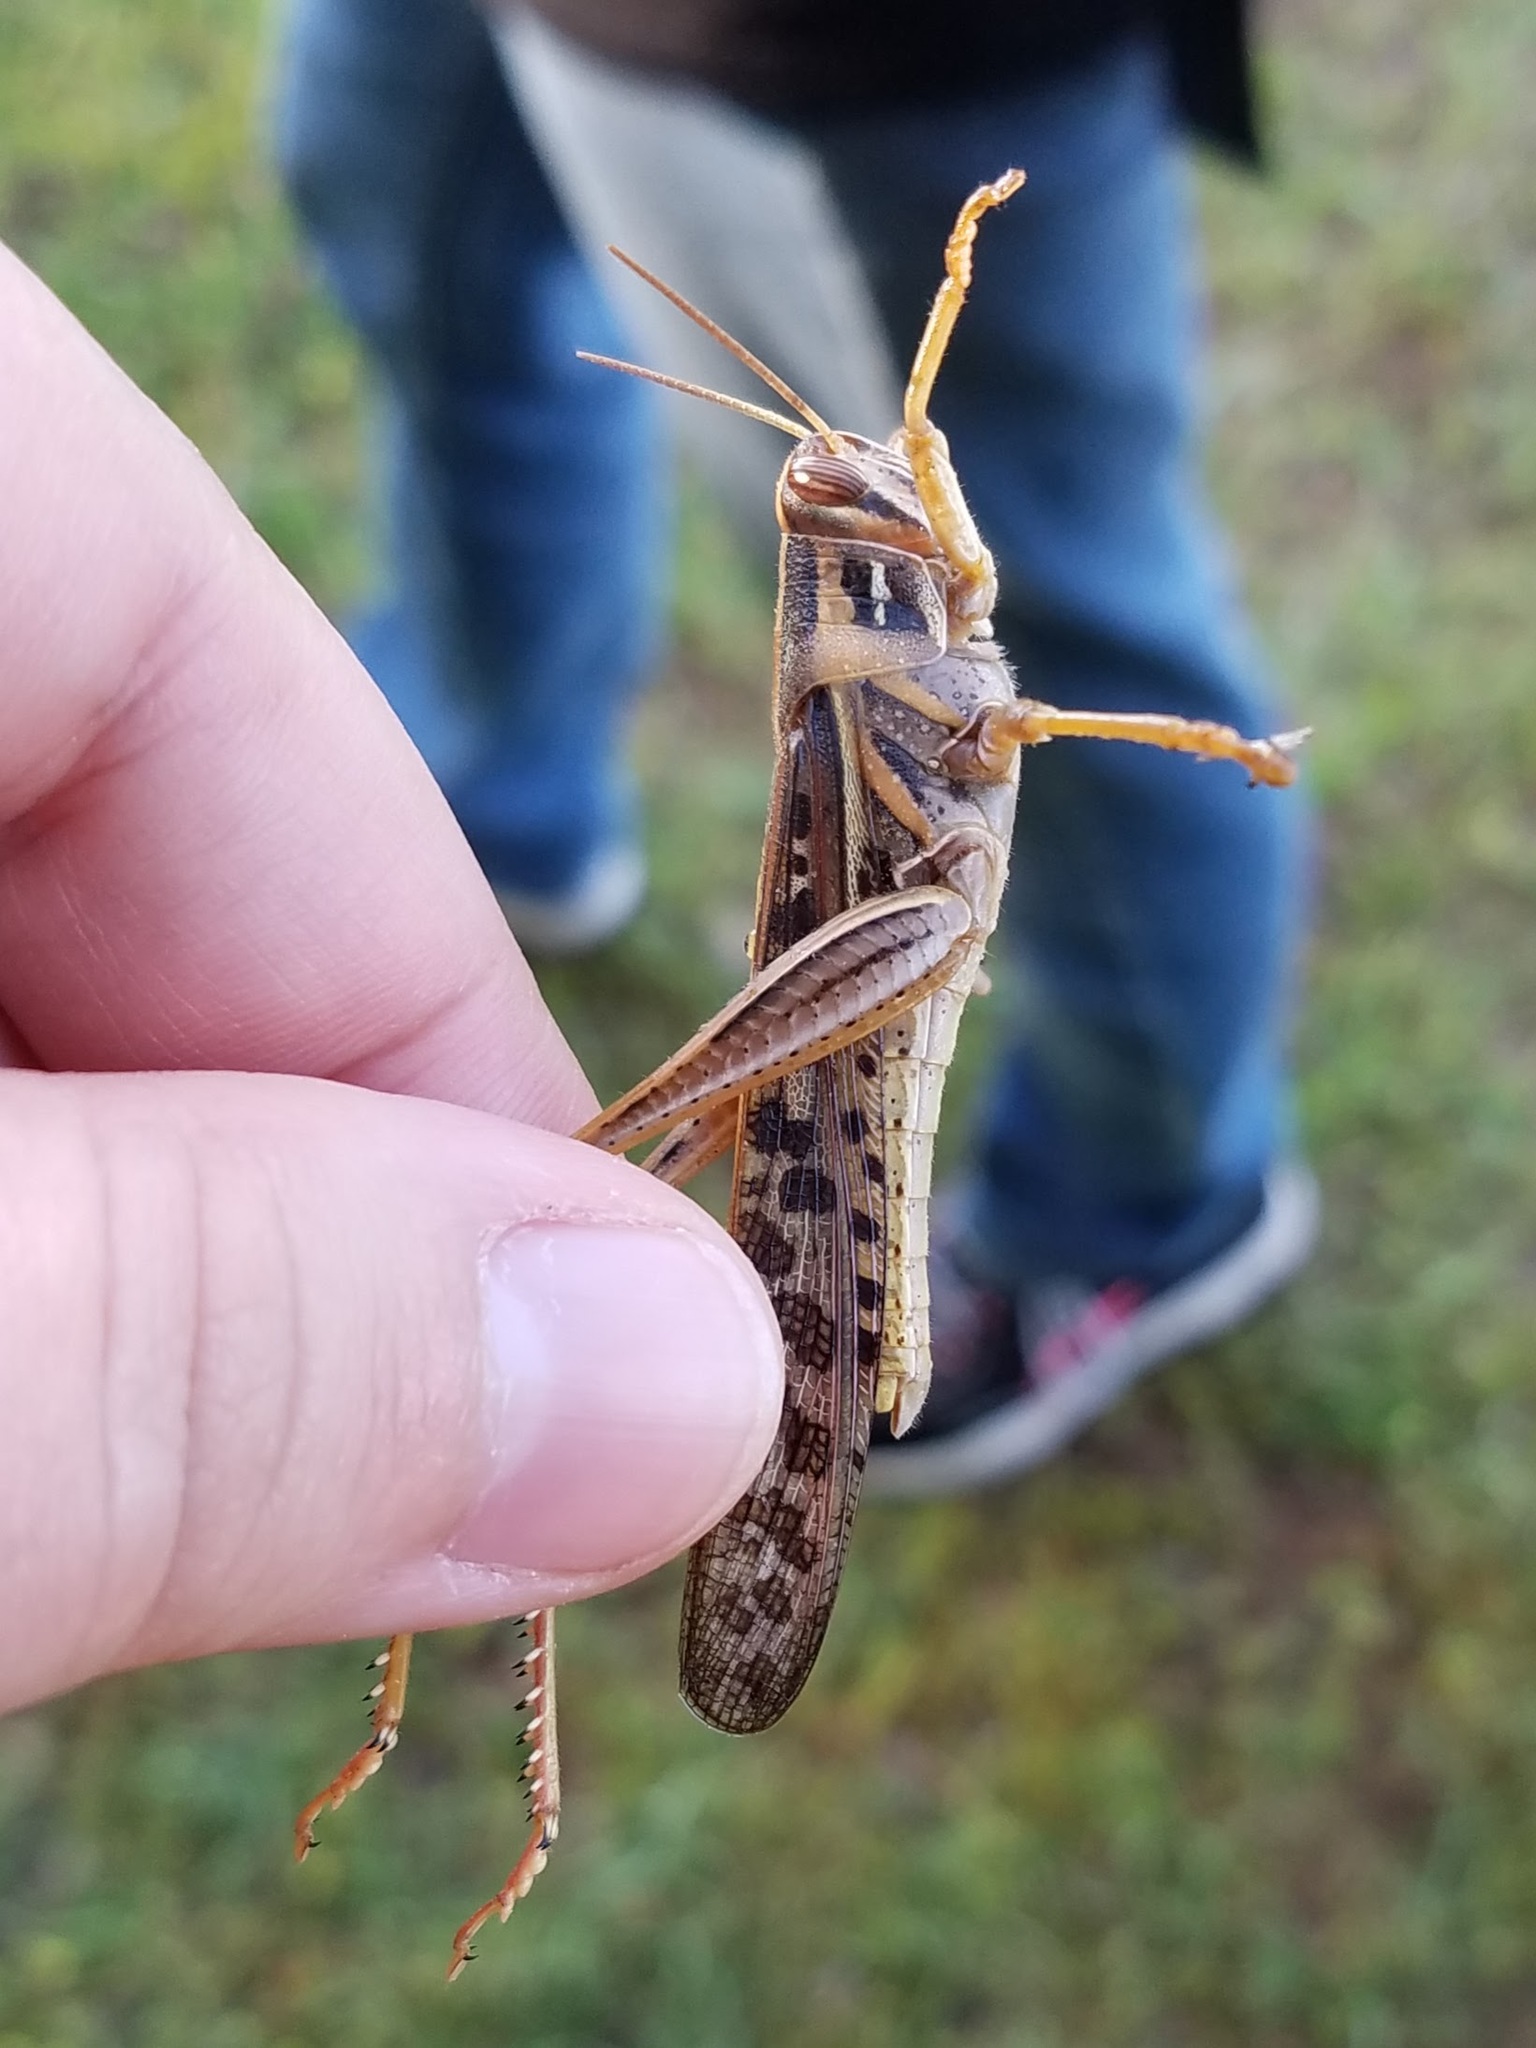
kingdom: Animalia
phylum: Arthropoda
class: Insecta
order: Orthoptera
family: Acrididae
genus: Schistocerca
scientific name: Schistocerca americana
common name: American bird locust
